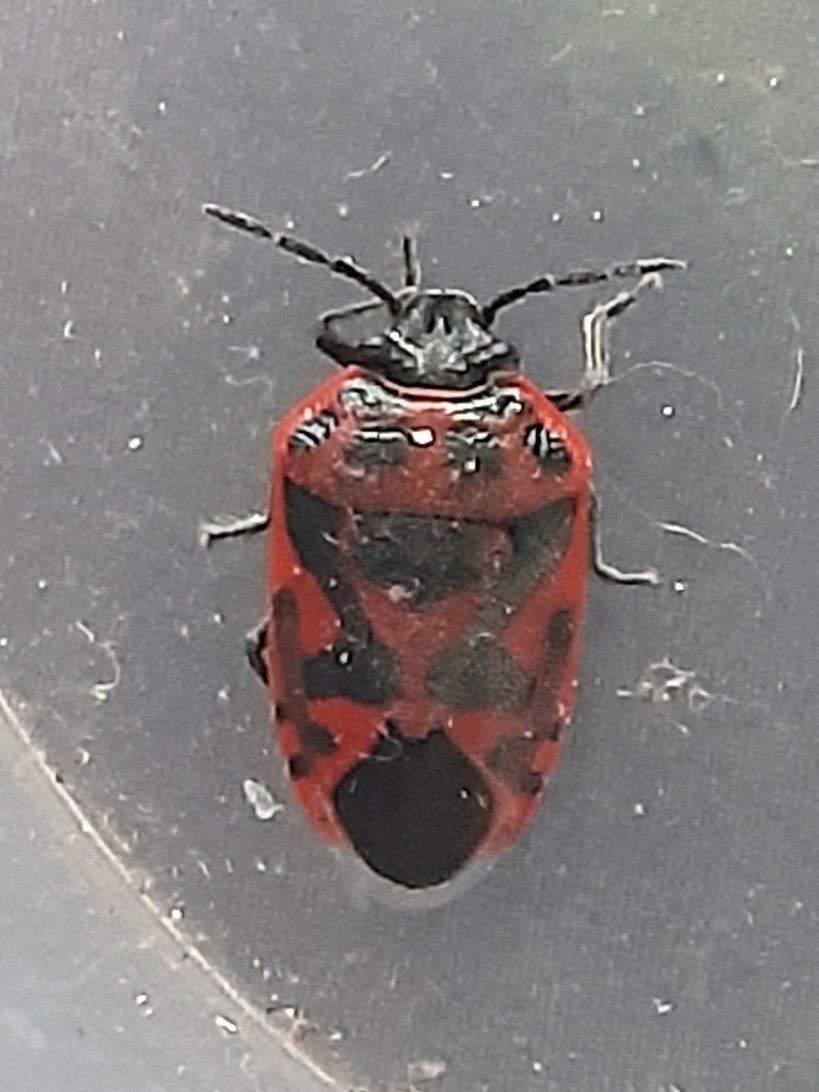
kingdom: Animalia
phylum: Arthropoda
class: Insecta
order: Hemiptera
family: Pentatomidae
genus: Eurydema
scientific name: Eurydema ornata
